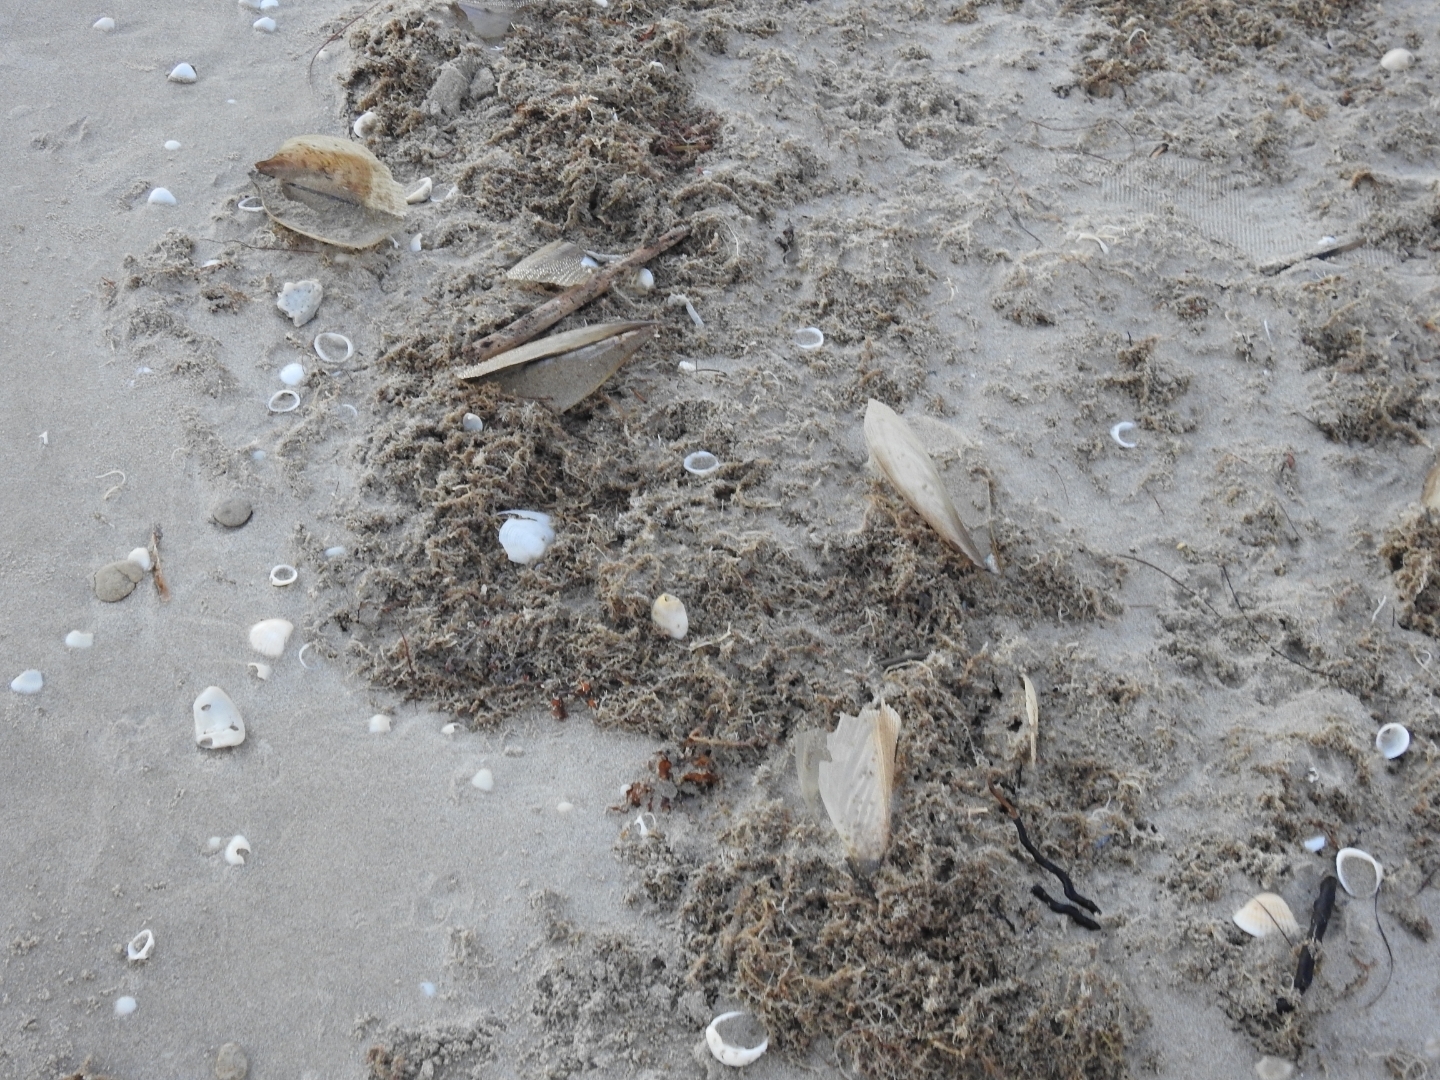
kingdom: Animalia
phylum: Mollusca
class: Bivalvia
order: Ostreida
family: Pinnidae
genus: Atrina
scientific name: Atrina serrata
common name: Saw-toothed penshell
